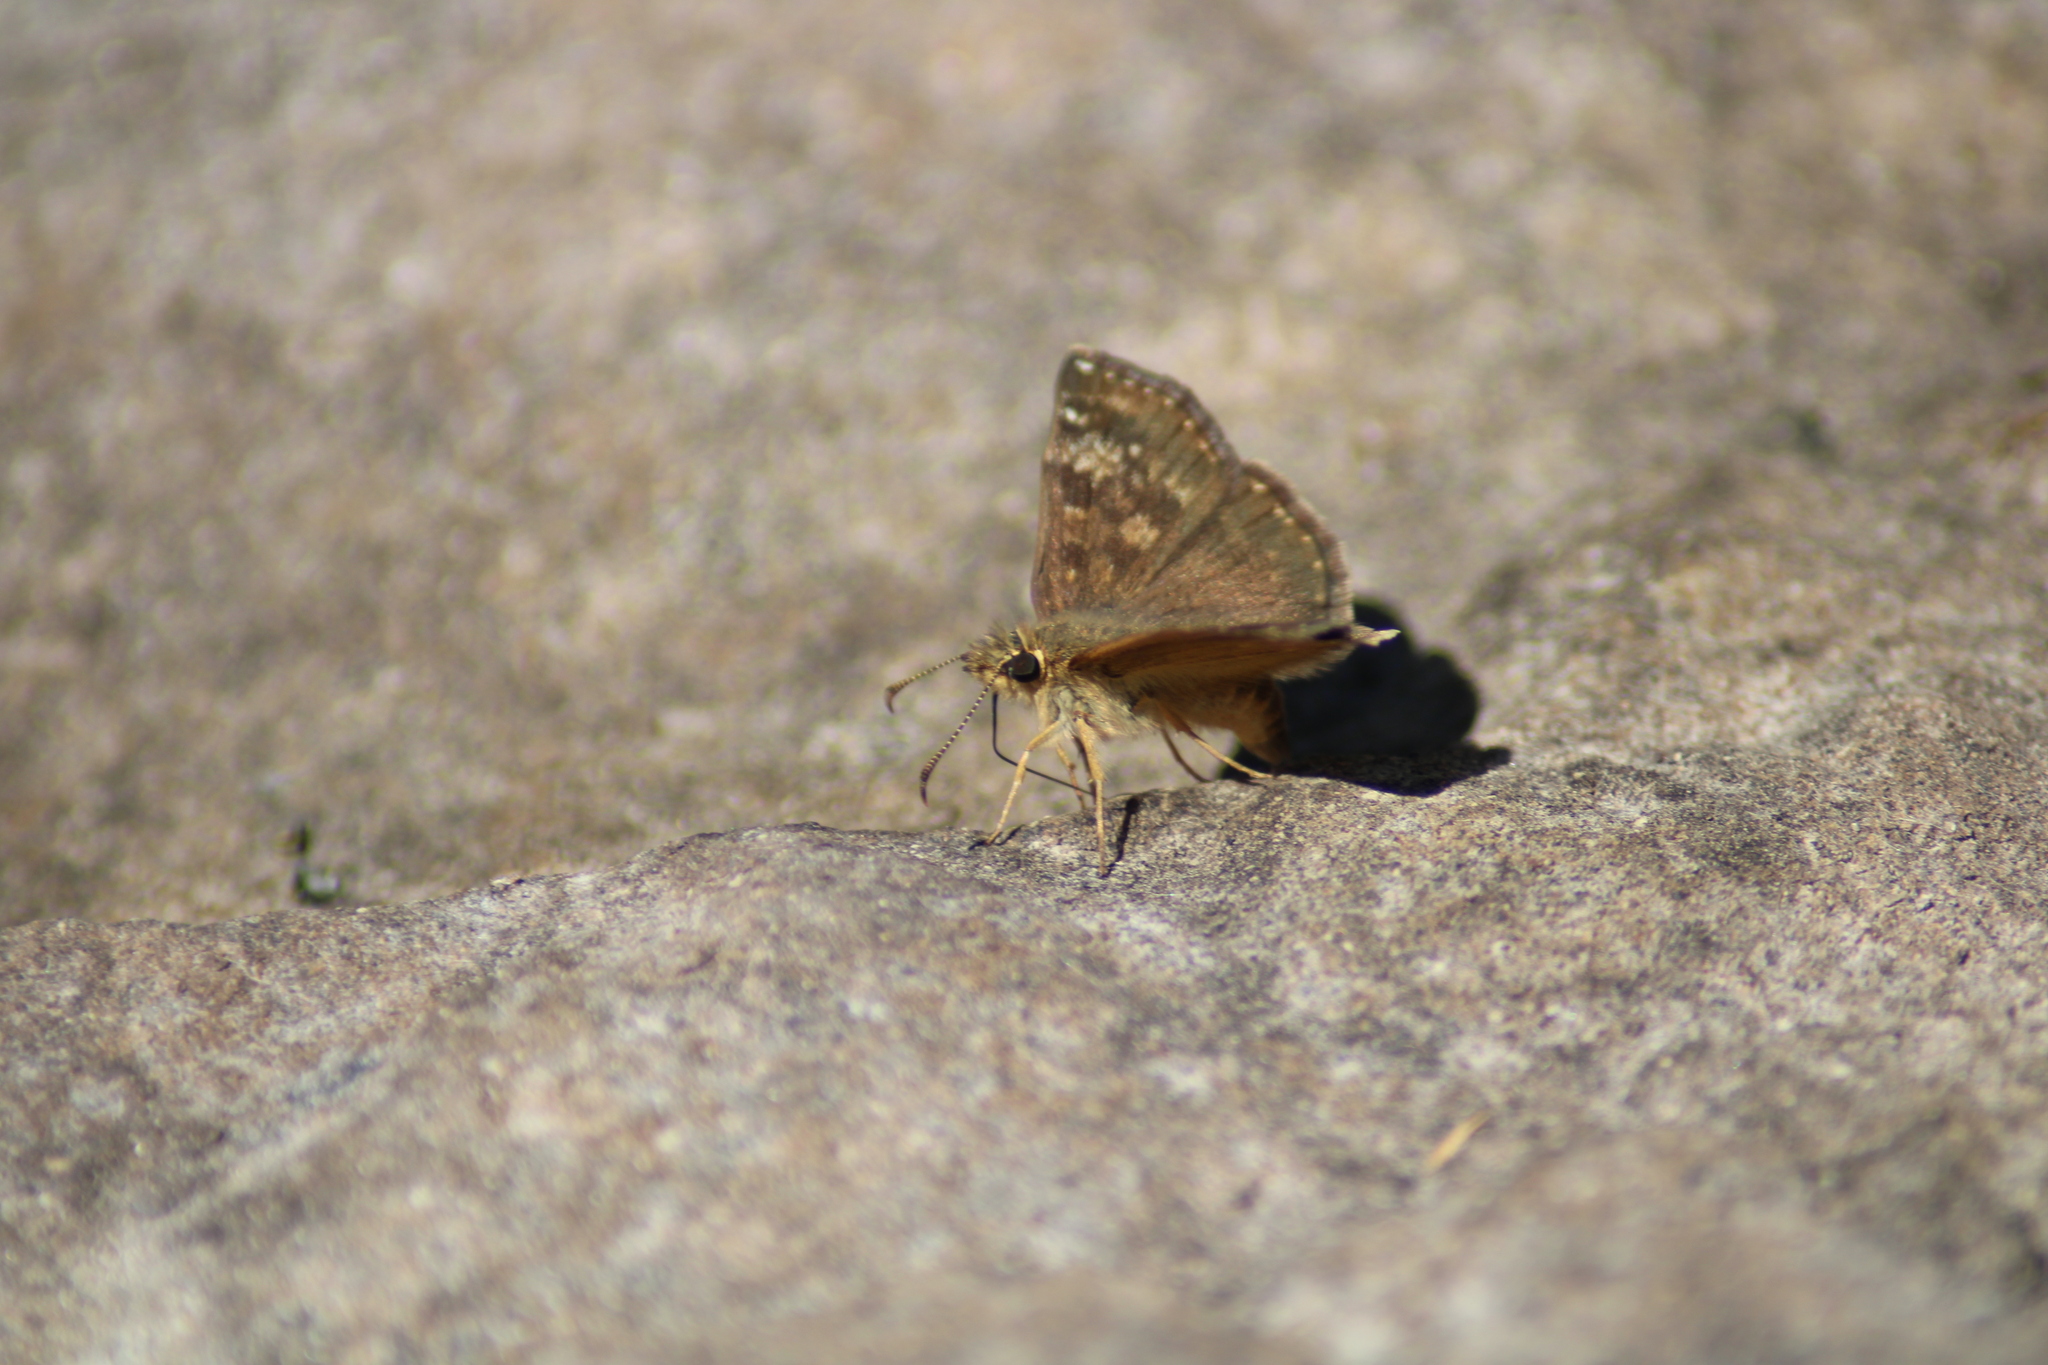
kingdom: Animalia
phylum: Arthropoda
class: Insecta
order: Lepidoptera
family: Hesperiidae
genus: Erynnis
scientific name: Erynnis tages
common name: Dingy skipper
